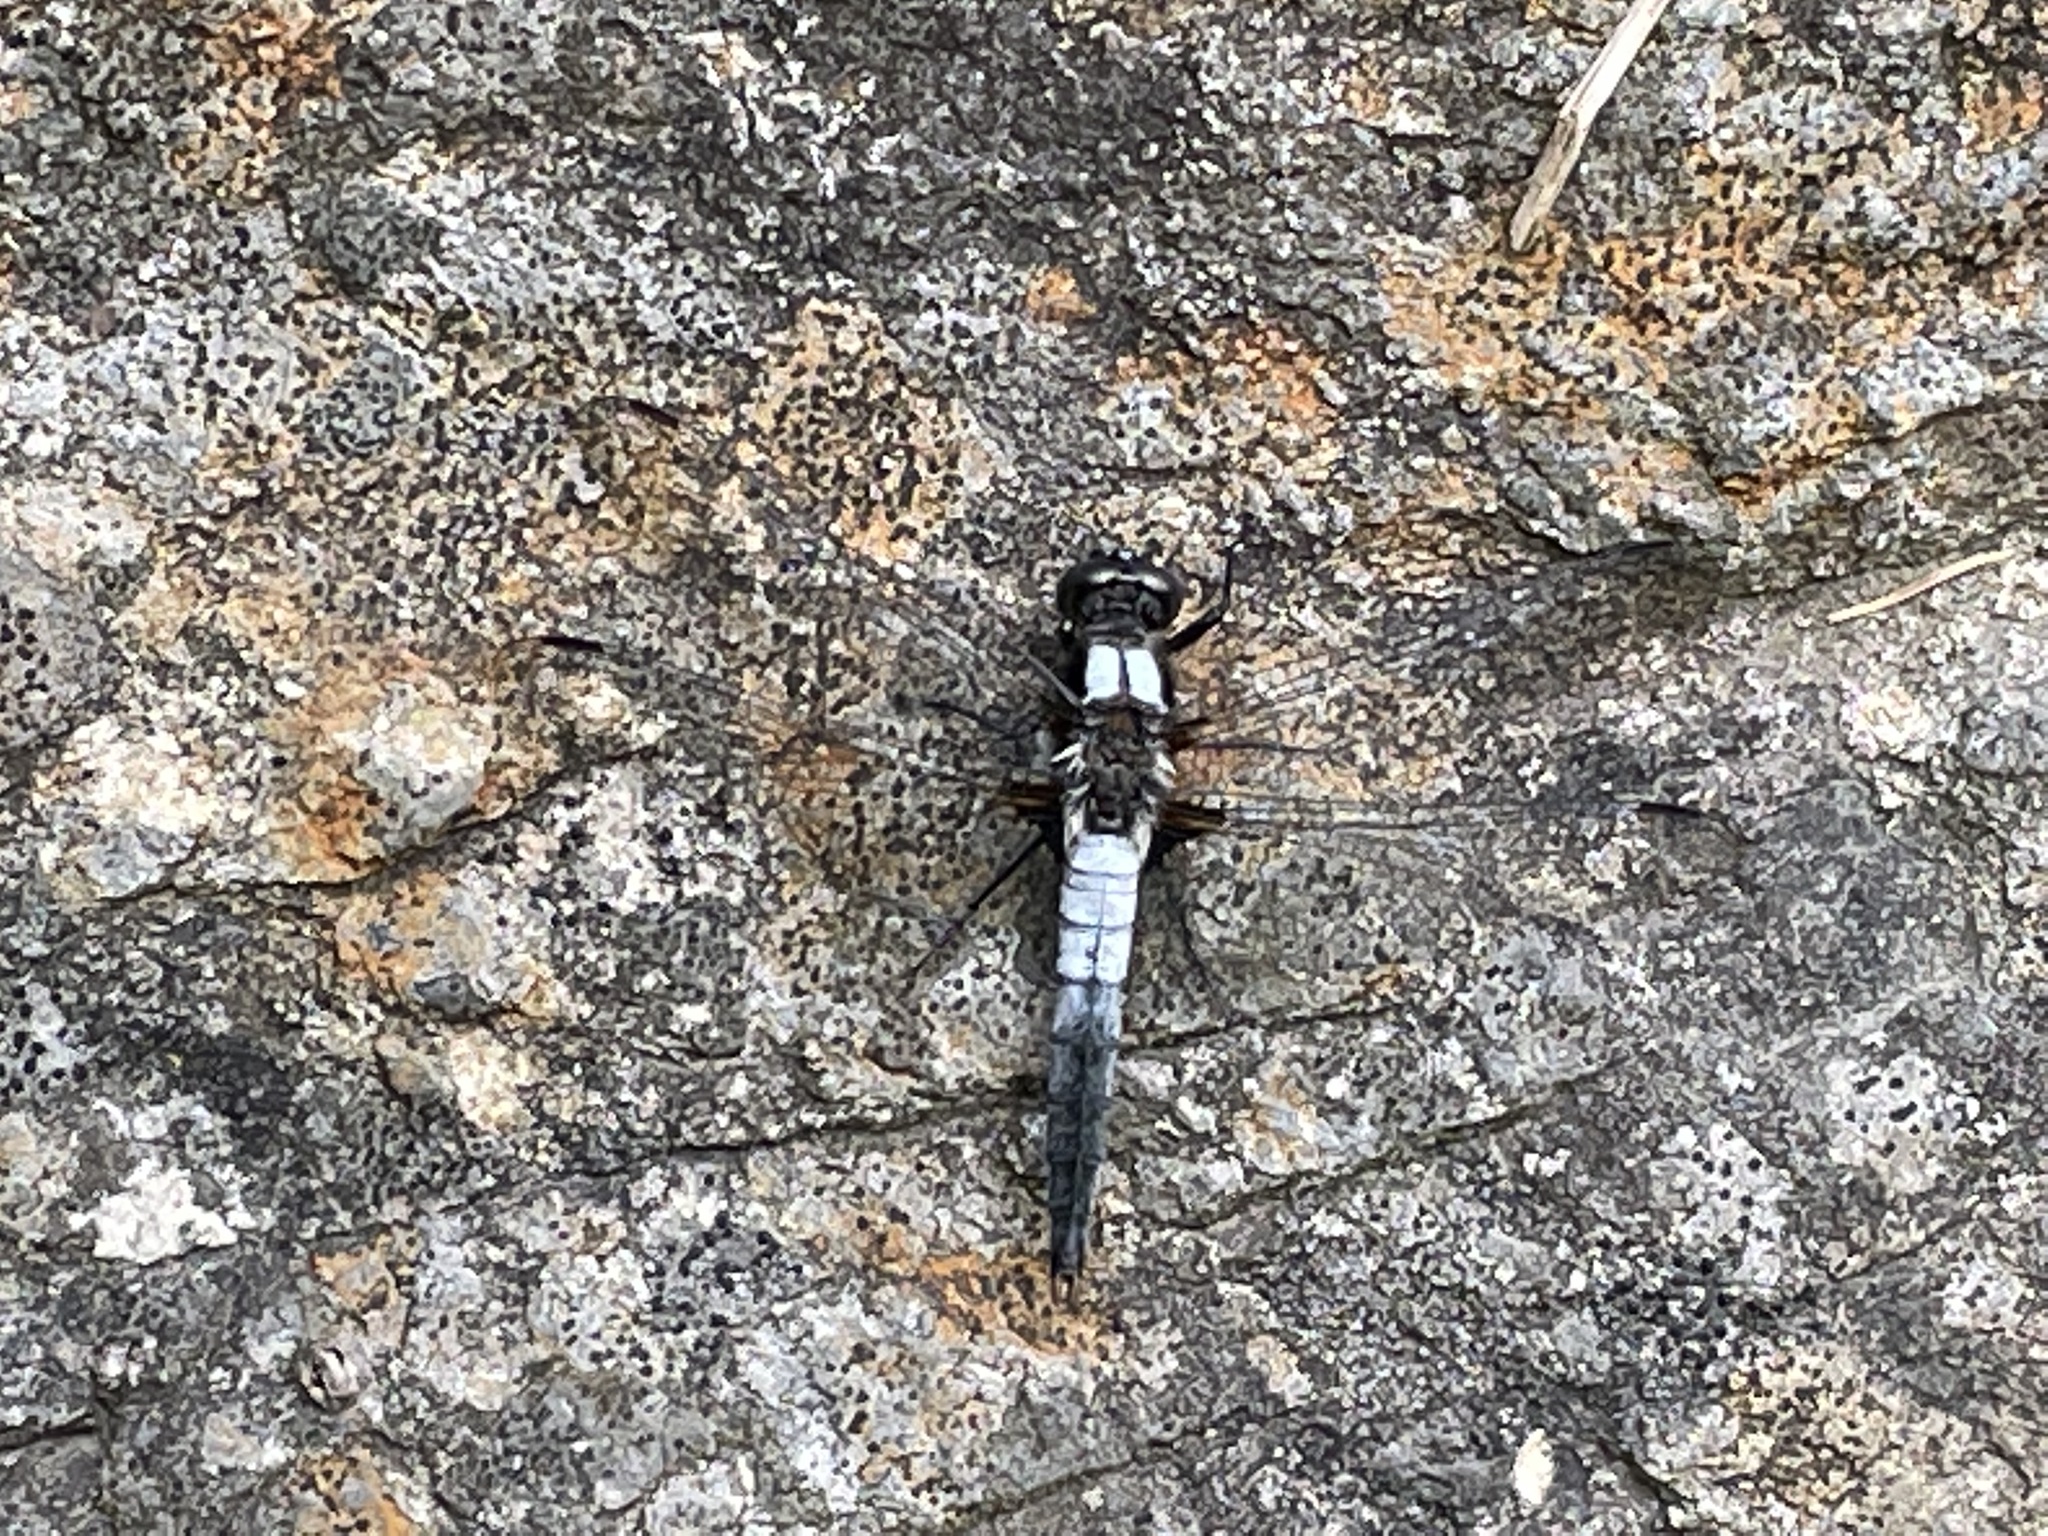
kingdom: Animalia
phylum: Arthropoda
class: Insecta
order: Odonata
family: Libellulidae
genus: Ladona
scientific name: Ladona julia
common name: Chalk-fronted corporal
